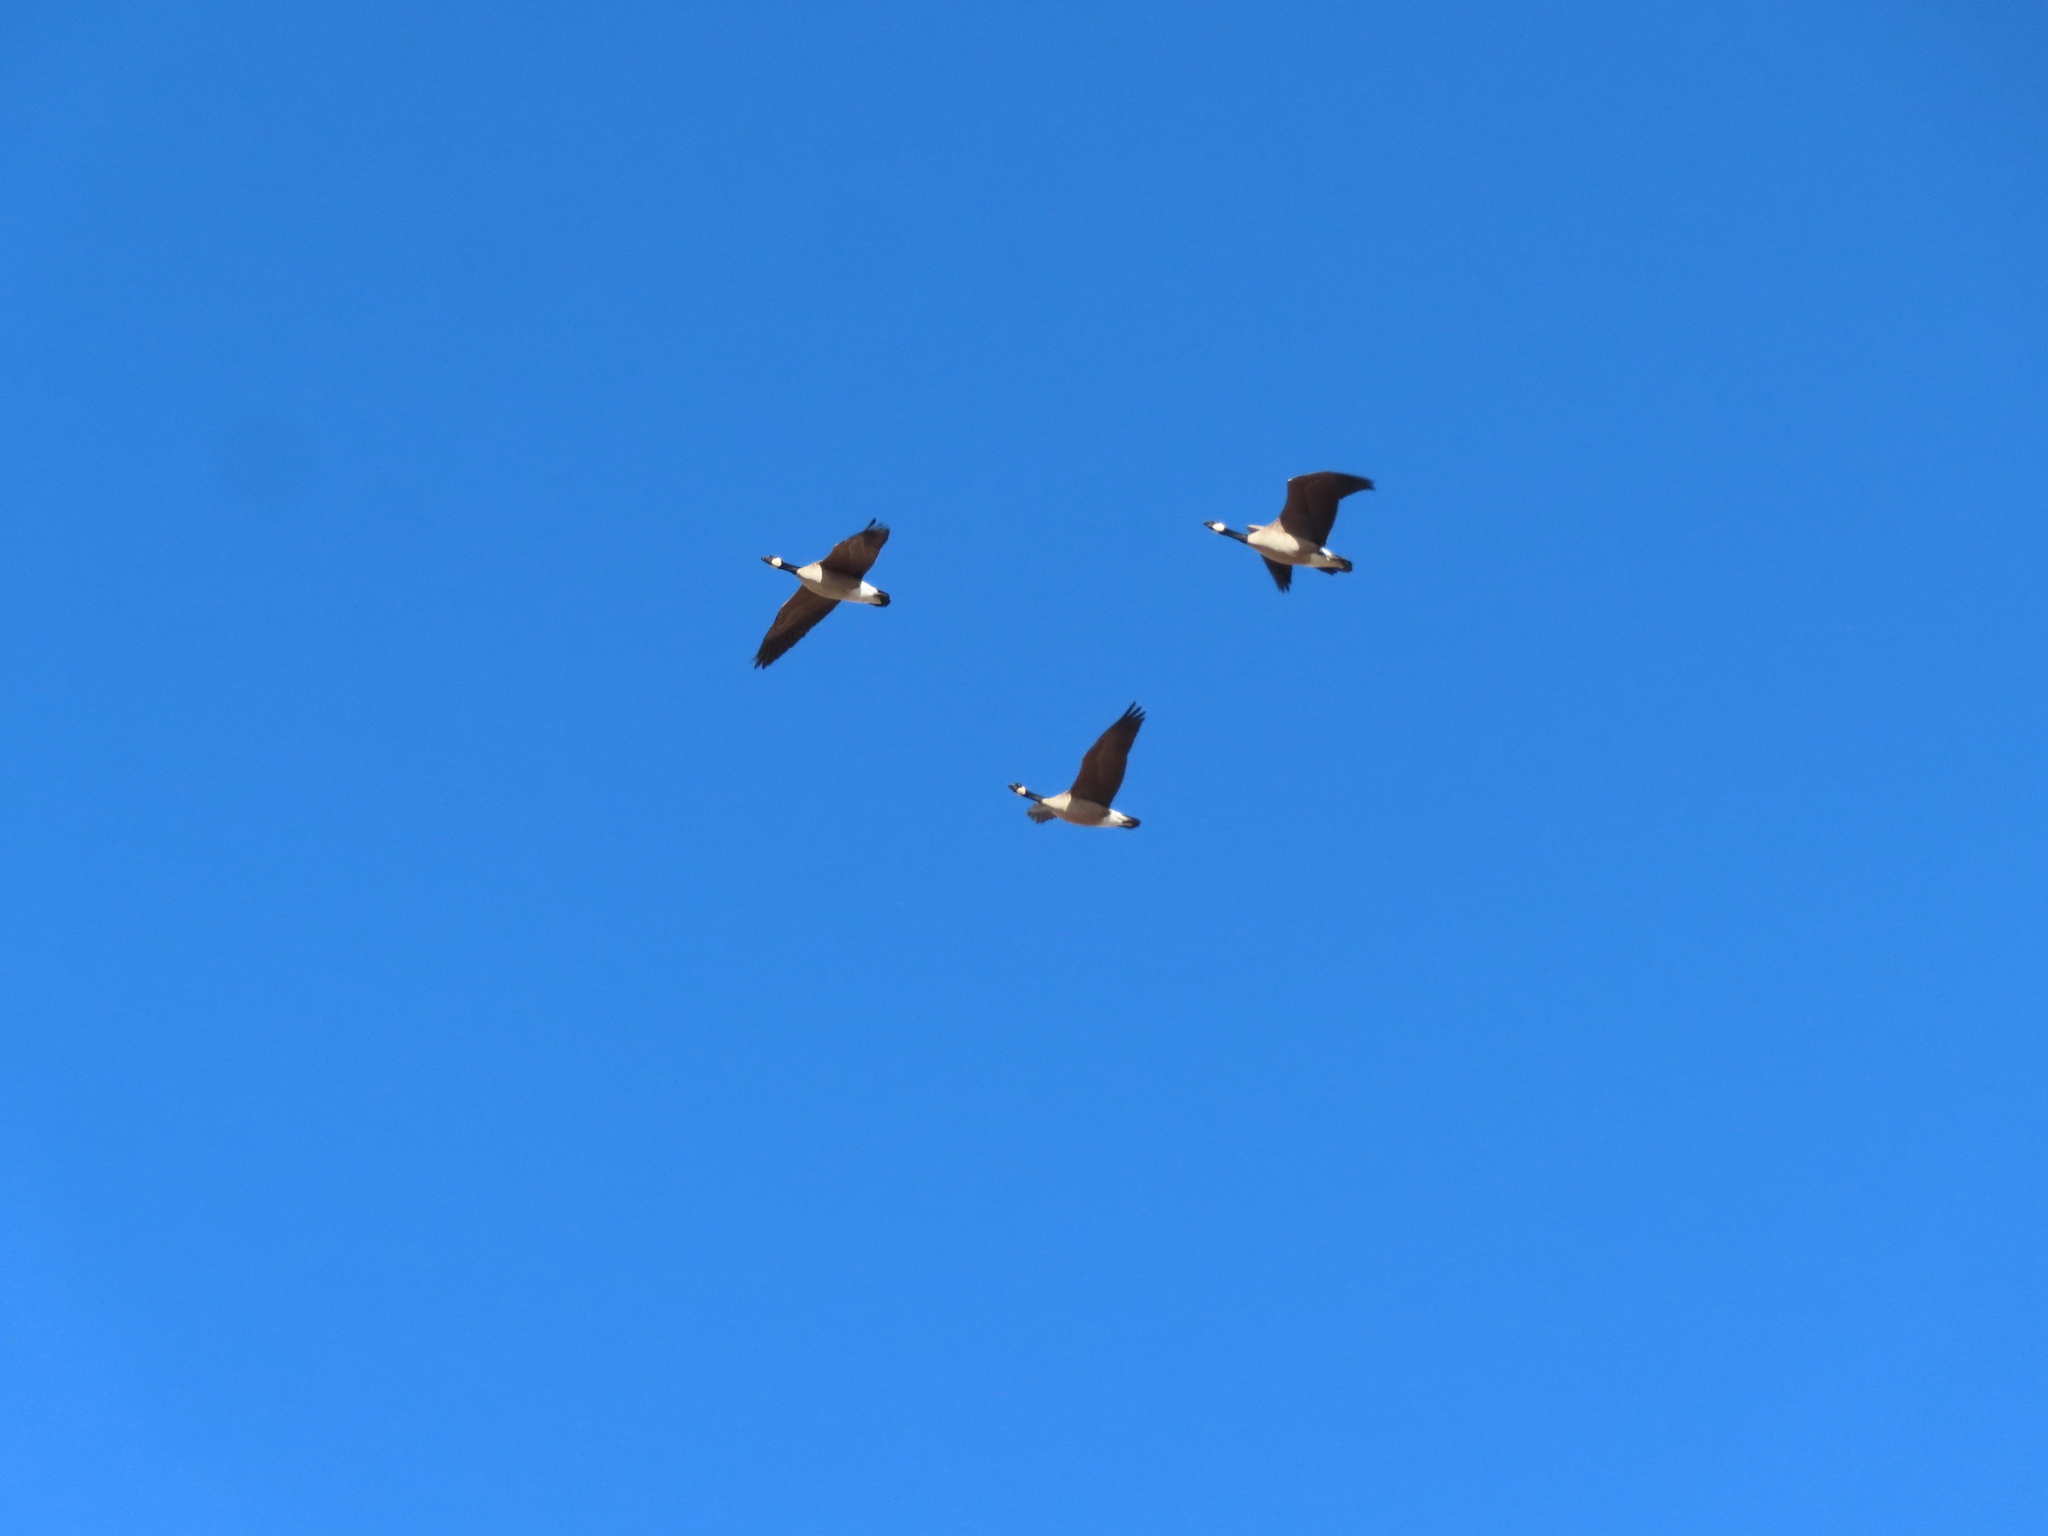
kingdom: Animalia
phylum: Chordata
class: Aves
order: Anseriformes
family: Anatidae
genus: Branta
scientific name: Branta canadensis
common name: Canada goose
